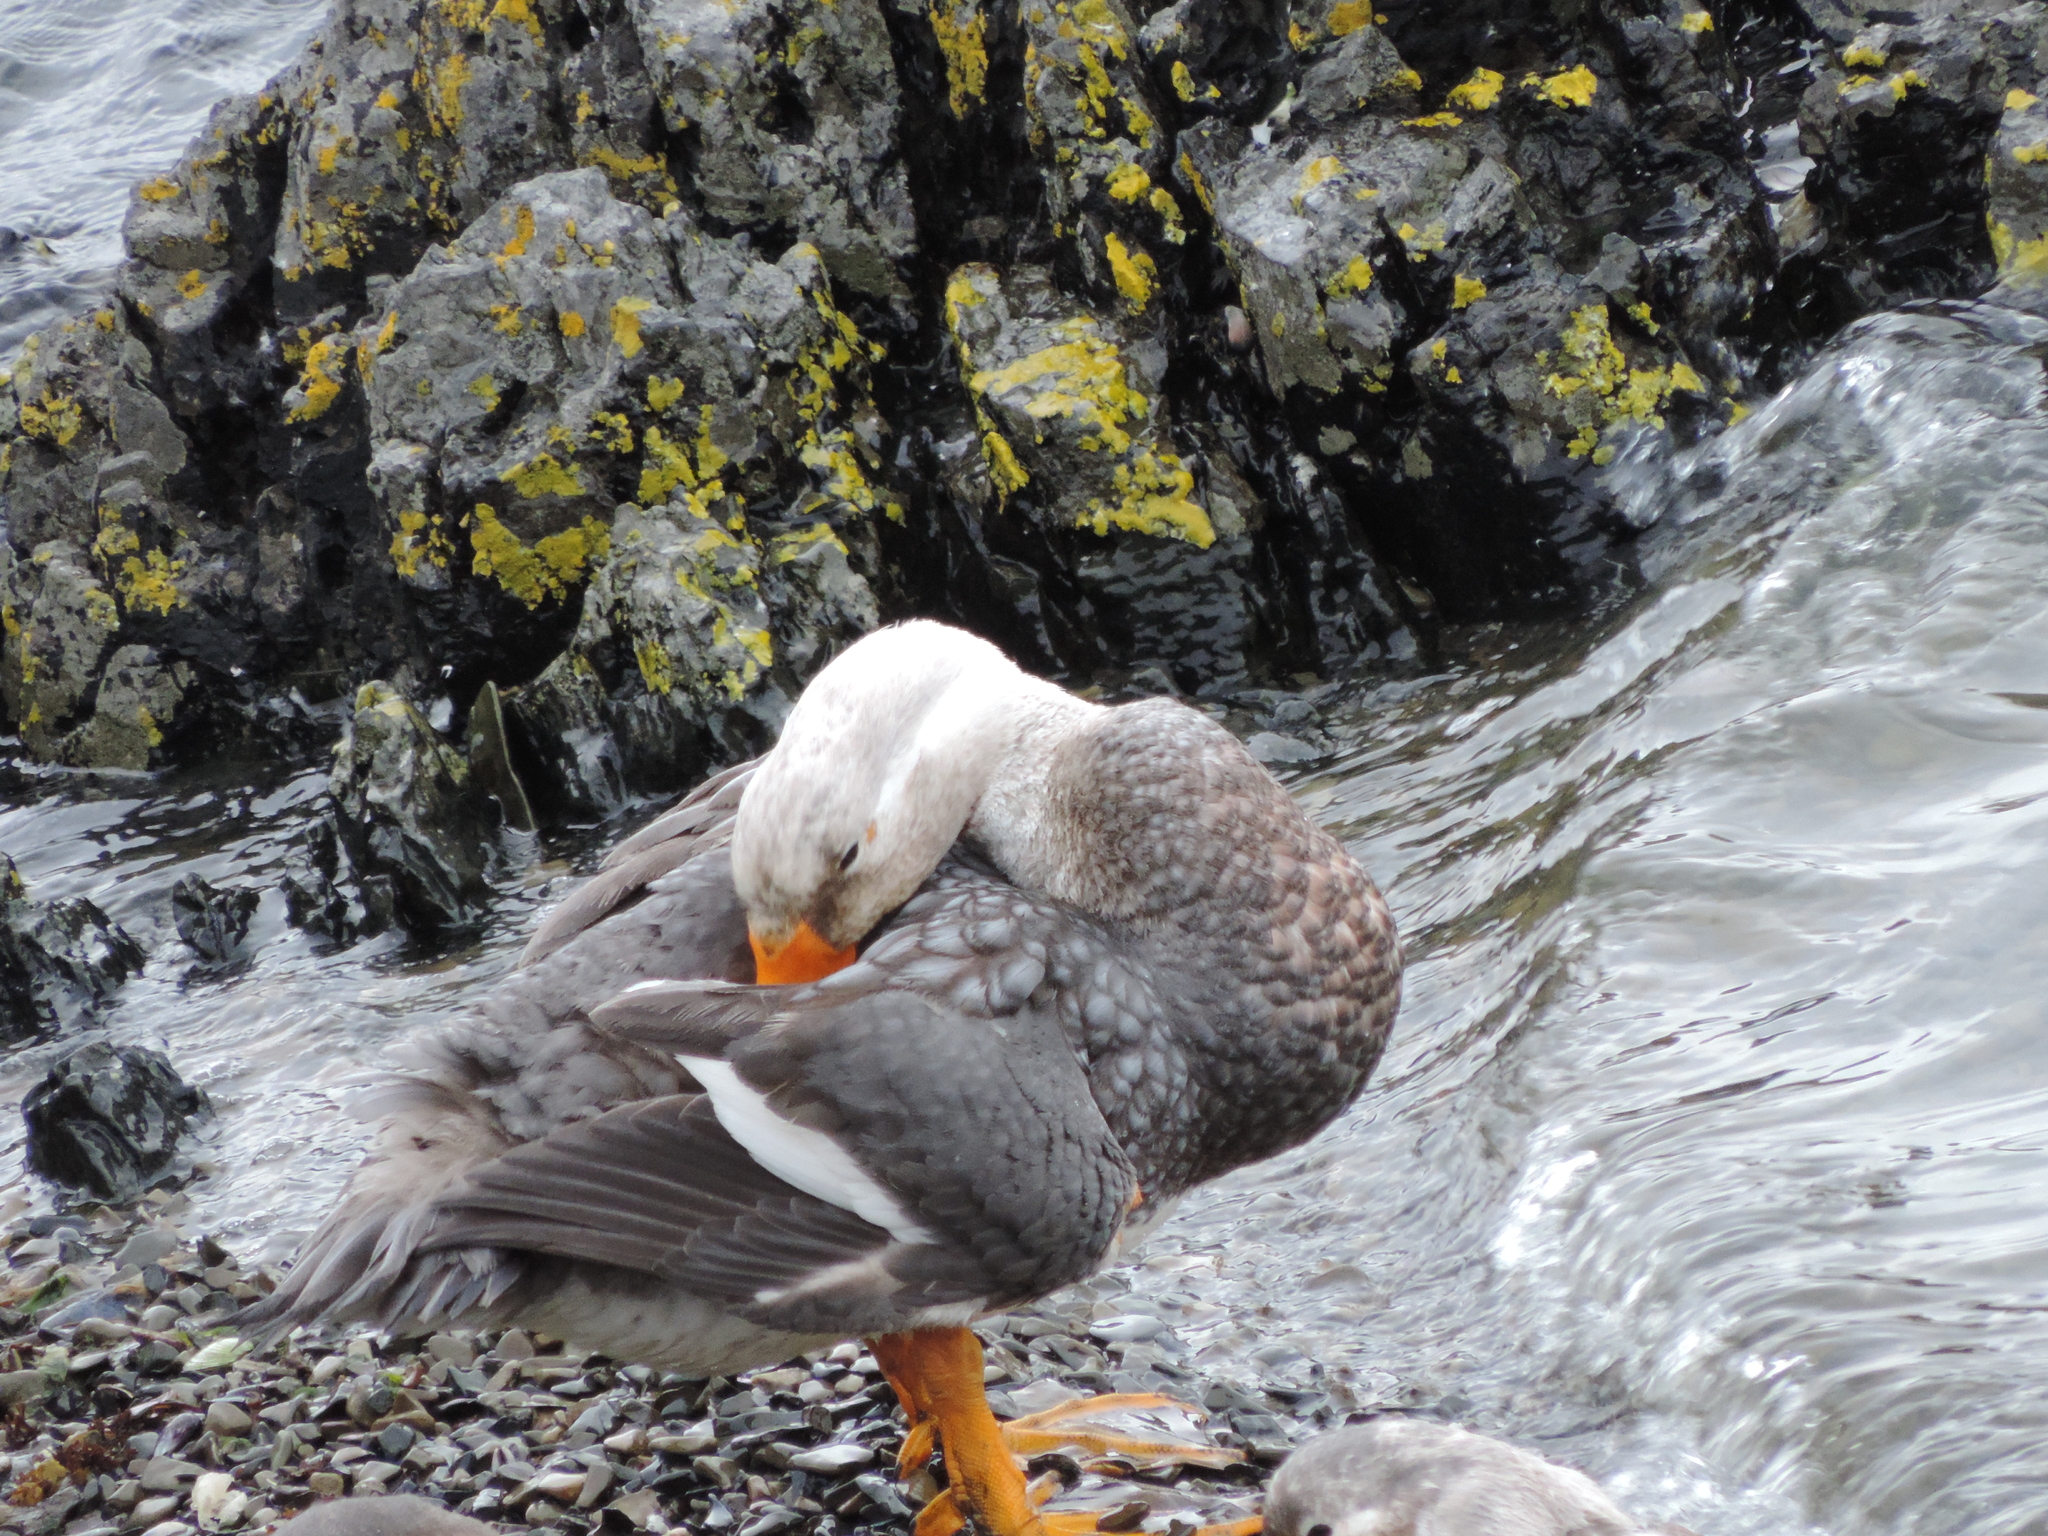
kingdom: Animalia
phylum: Chordata
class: Aves
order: Anseriformes
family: Anatidae
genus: Tachyeres
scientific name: Tachyeres brachypterus
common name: Falkland steamer duck
